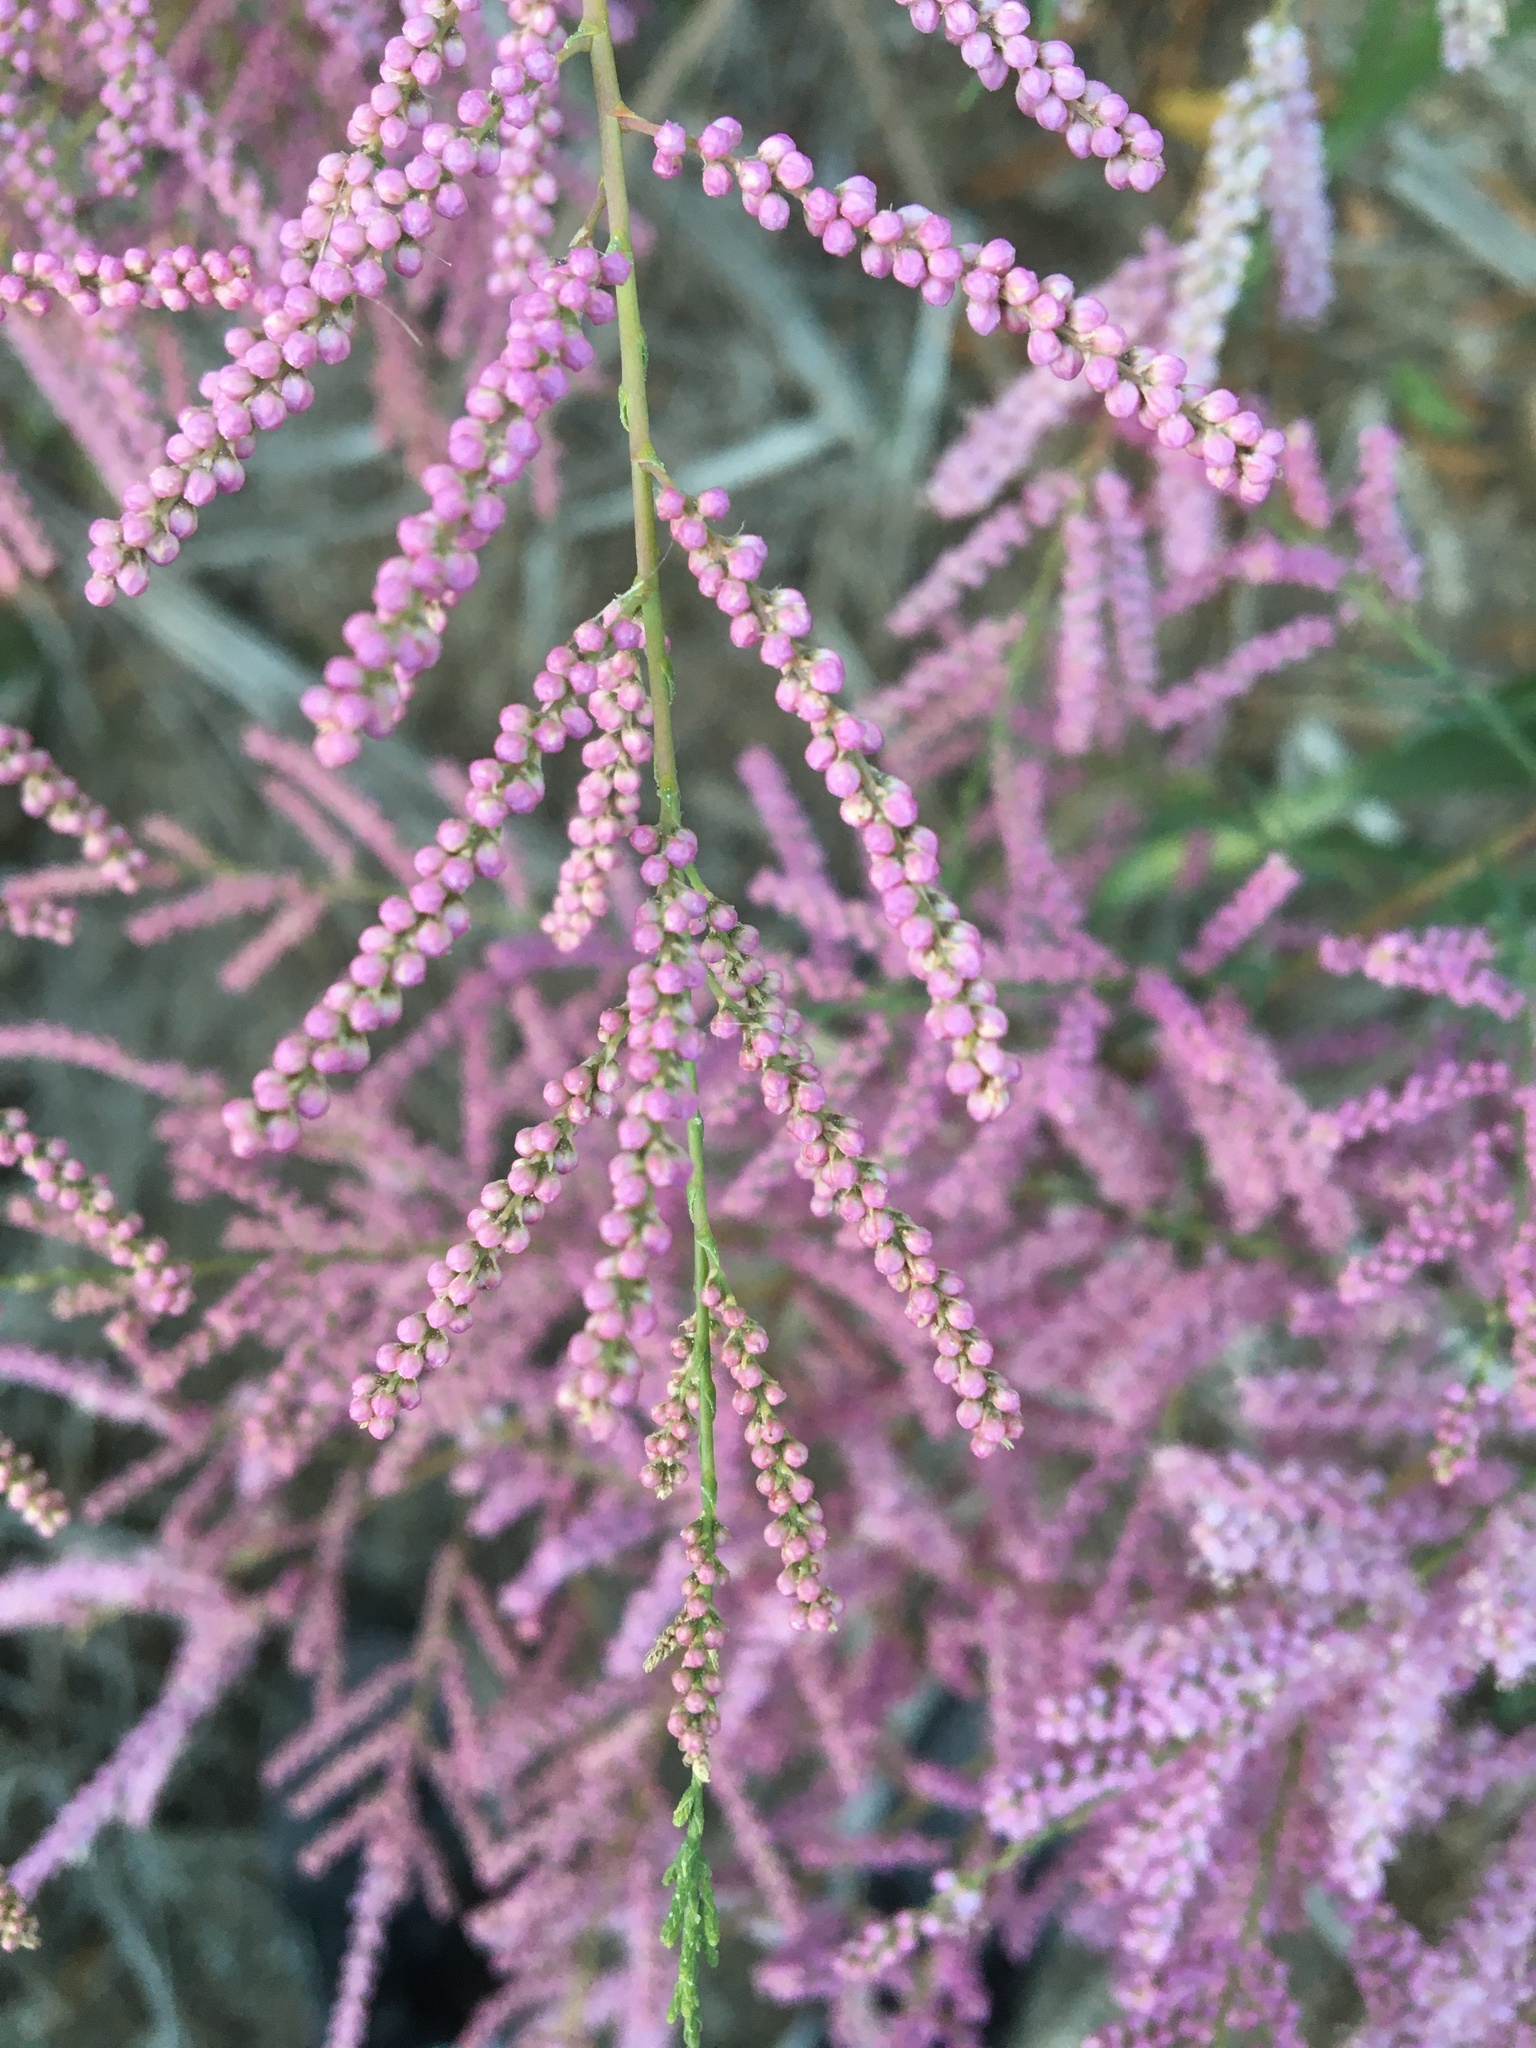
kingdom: Plantae
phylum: Tracheophyta
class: Magnoliopsida
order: Caryophyllales
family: Tamaricaceae
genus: Tamarix
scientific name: Tamarix
